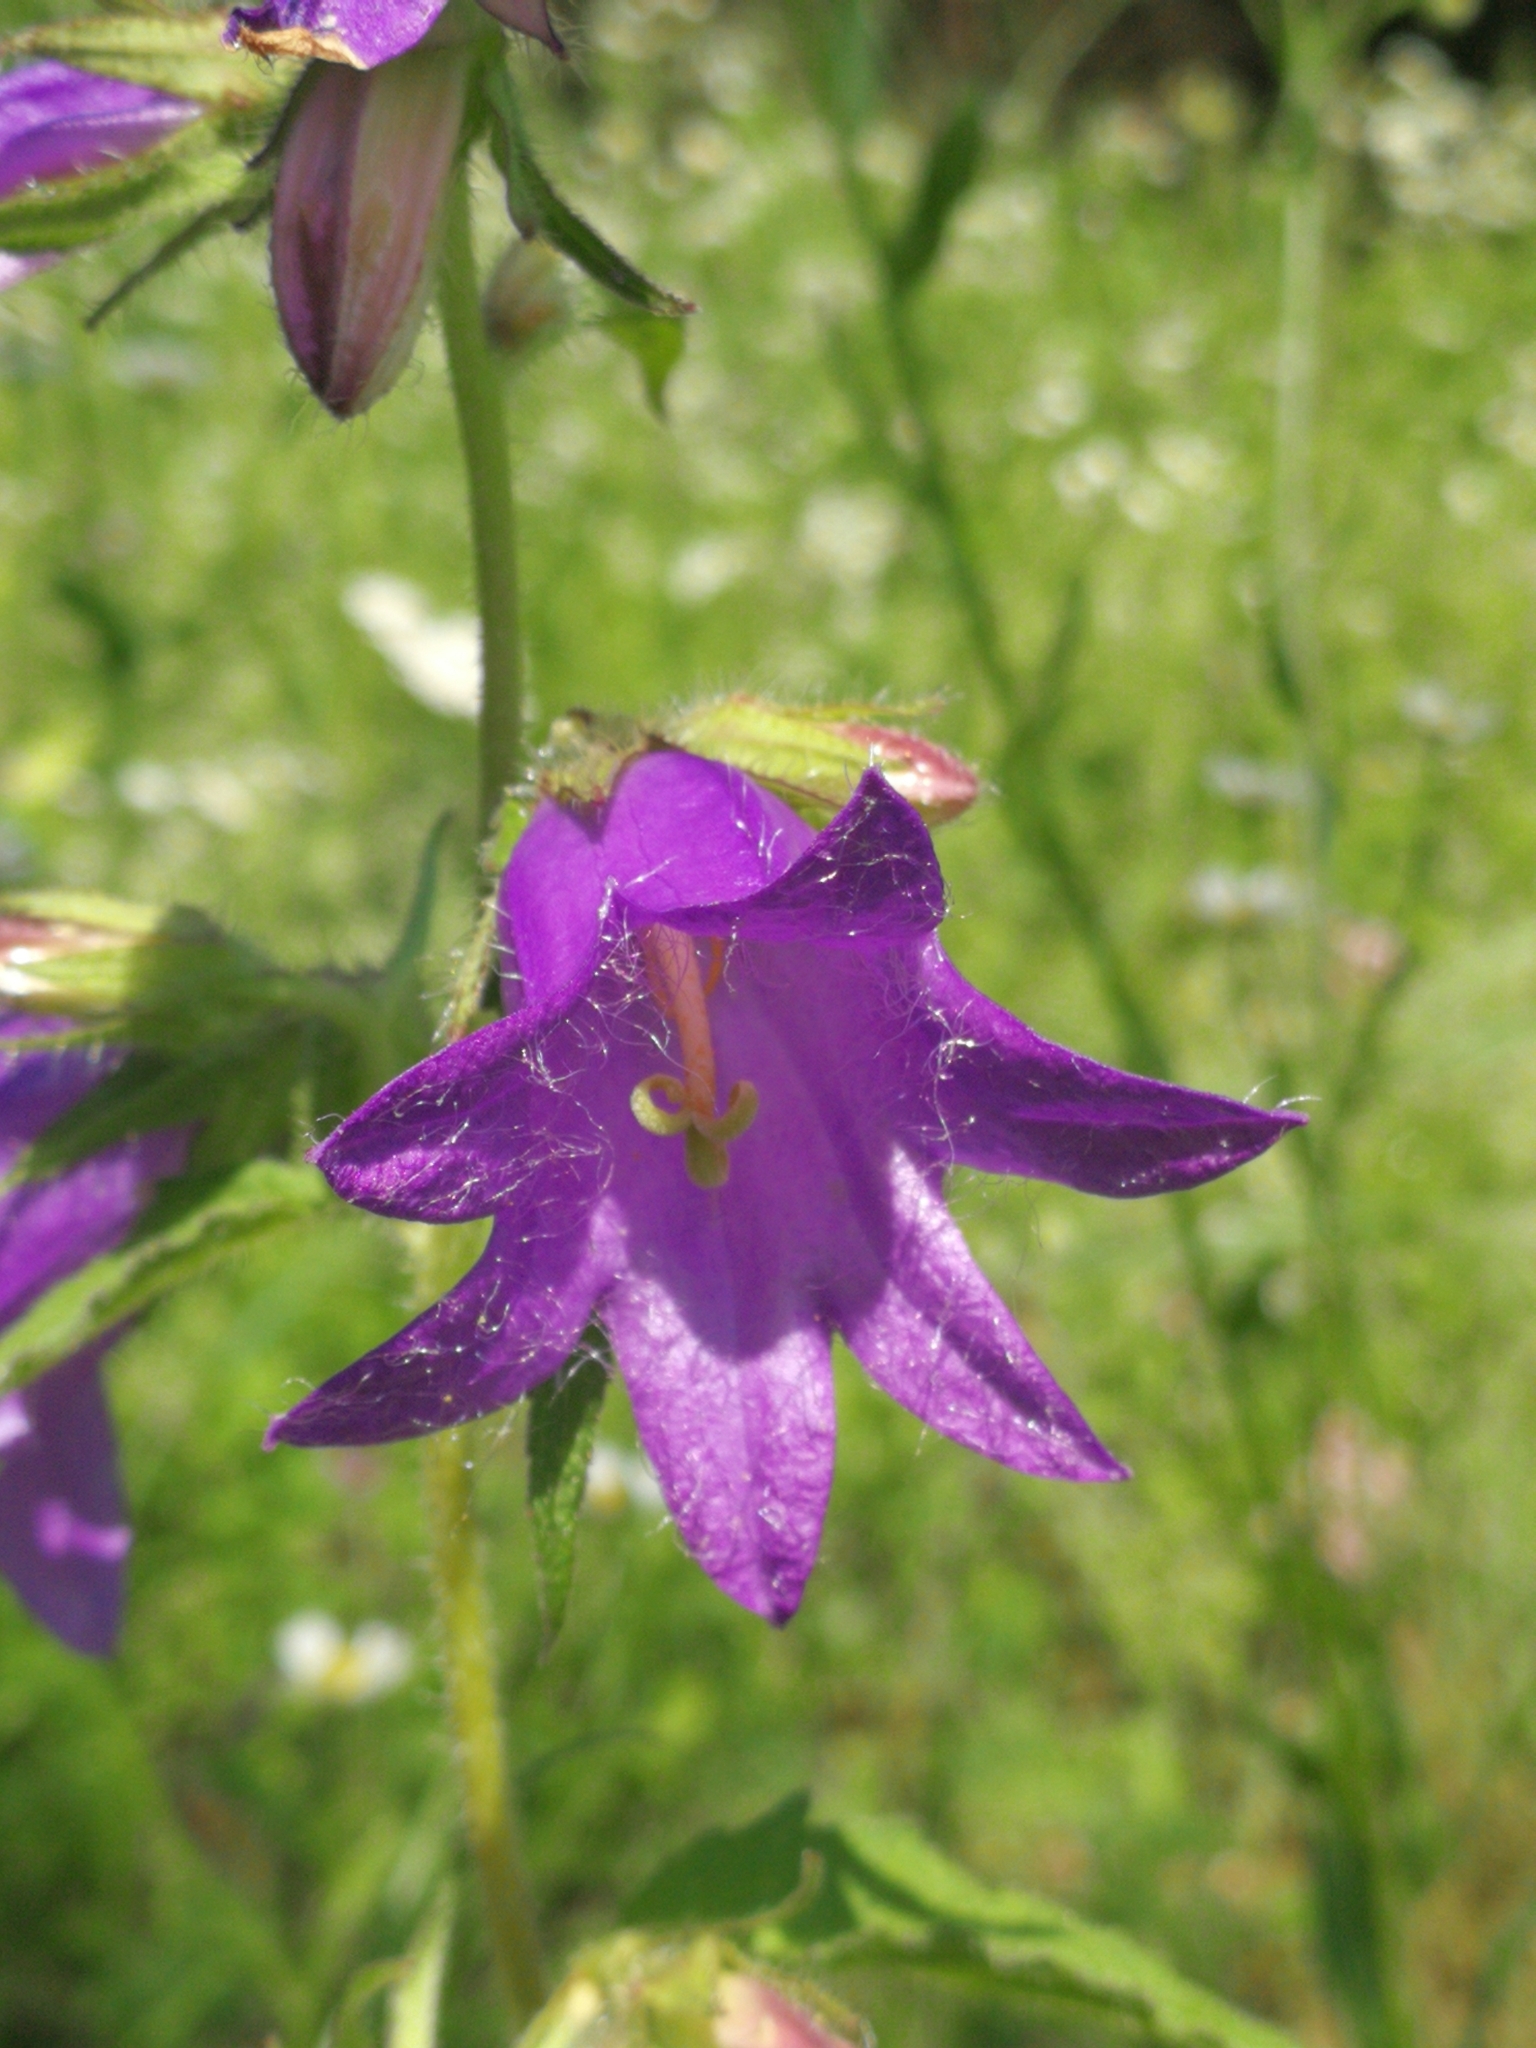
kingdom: Plantae
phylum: Tracheophyta
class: Magnoliopsida
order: Asterales
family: Campanulaceae
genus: Campanula
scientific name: Campanula trachelium
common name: Nettle-leaved bellflower
